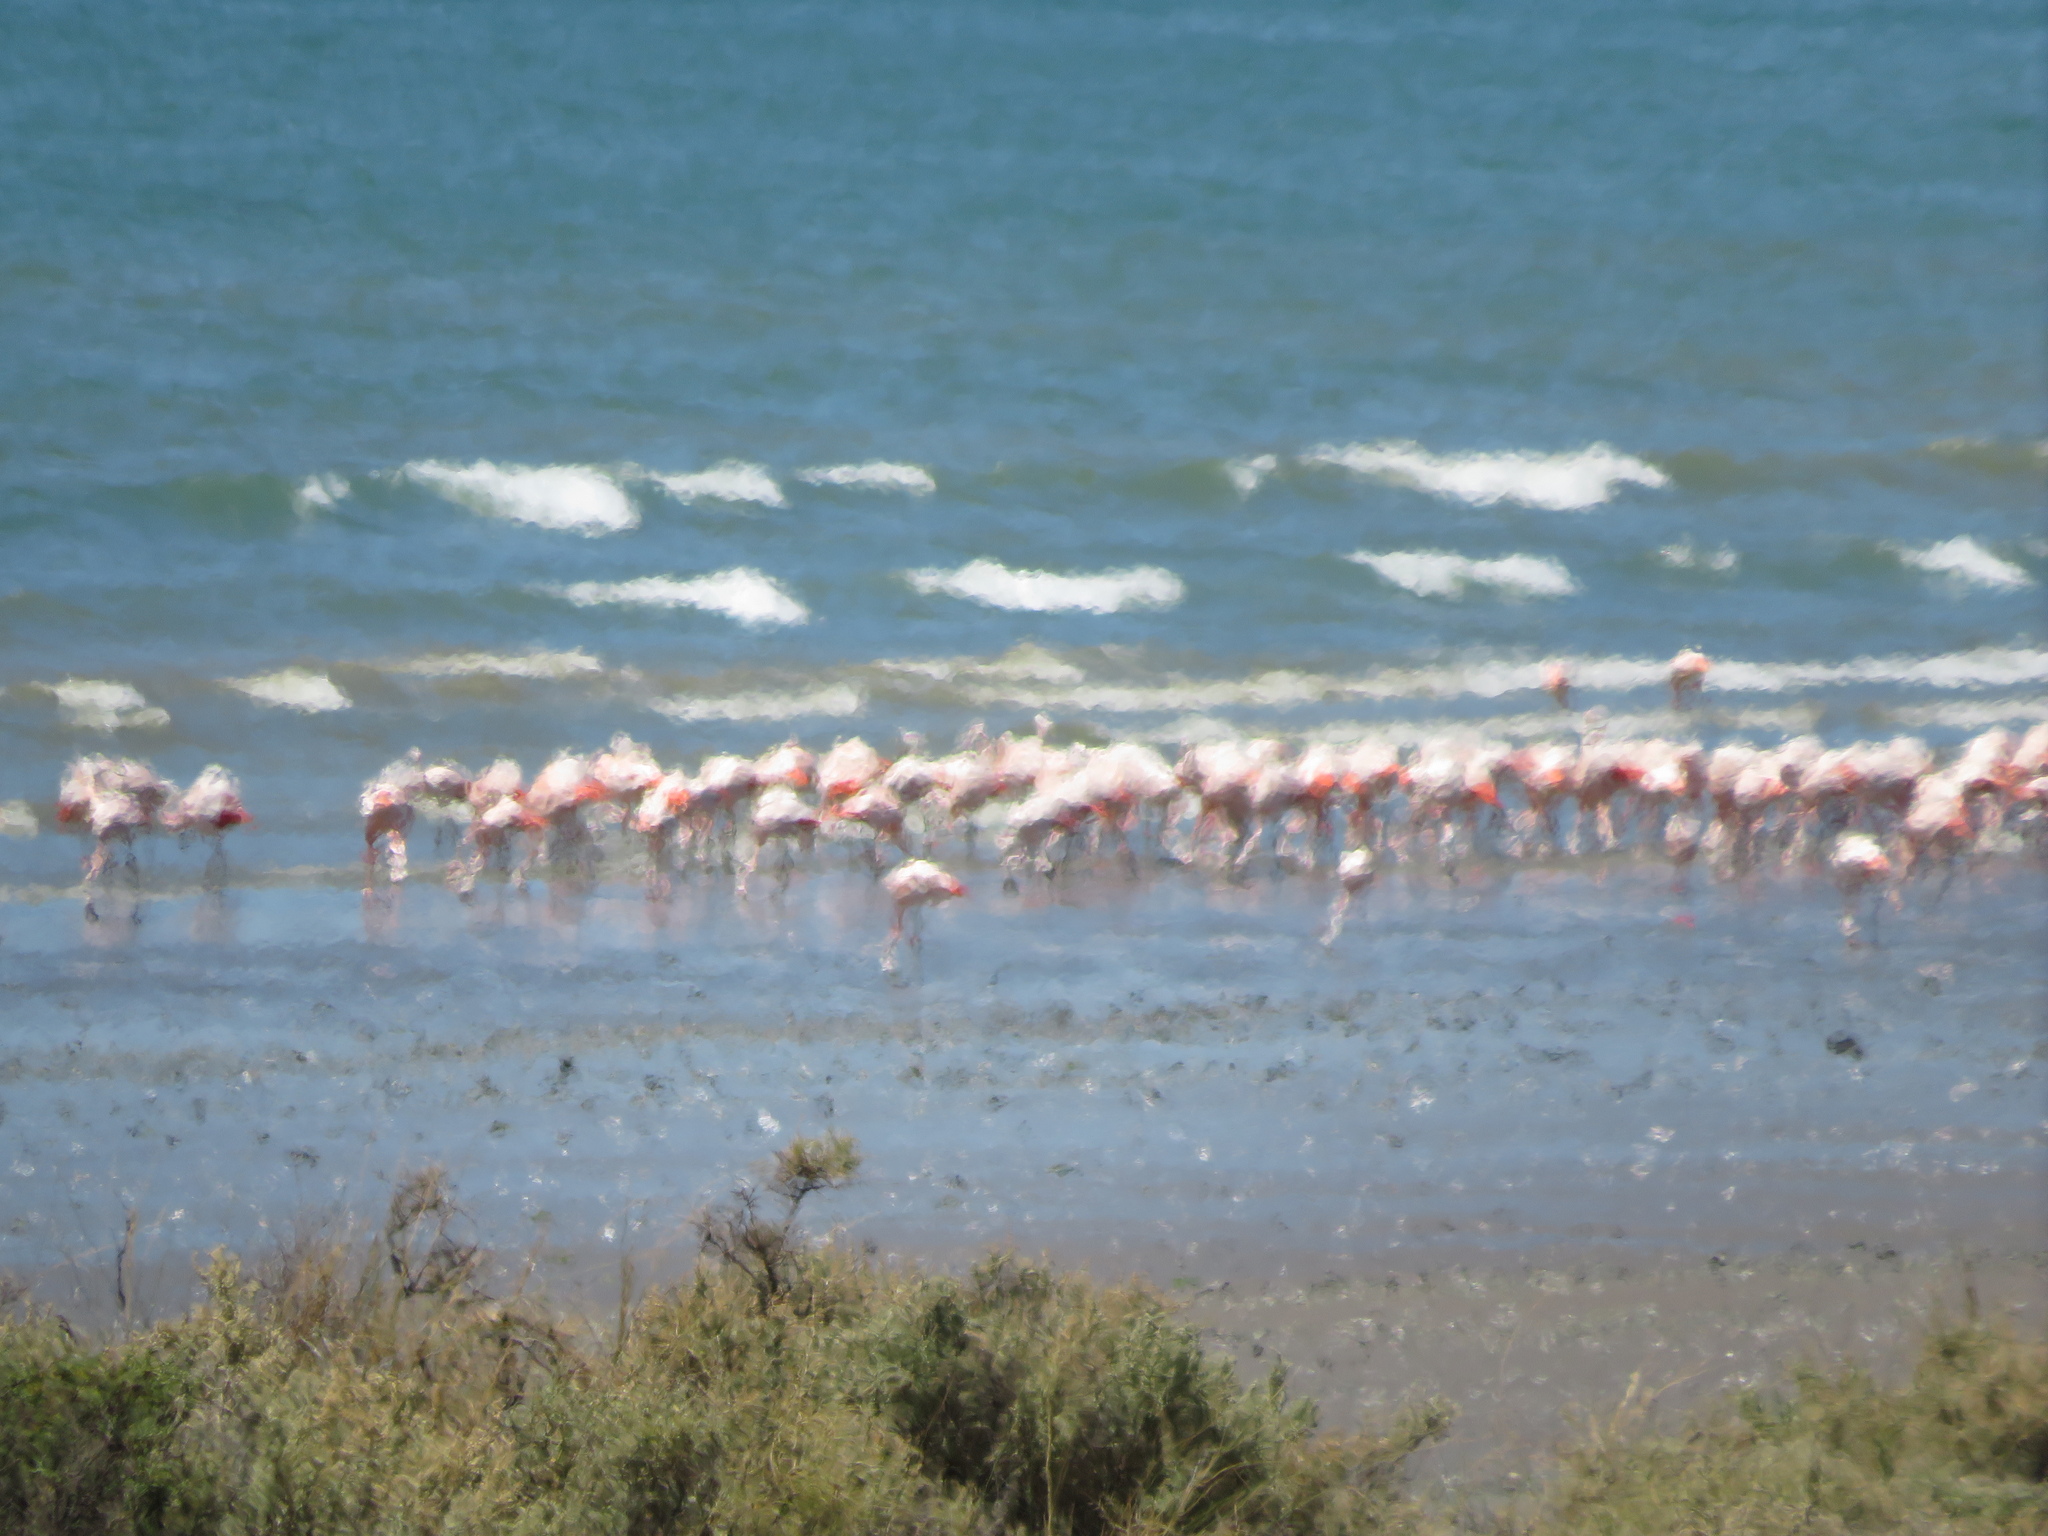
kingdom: Animalia
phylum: Chordata
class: Aves
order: Phoenicopteriformes
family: Phoenicopteridae
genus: Phoenicopterus
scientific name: Phoenicopterus chilensis
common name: Chilean flamingo
